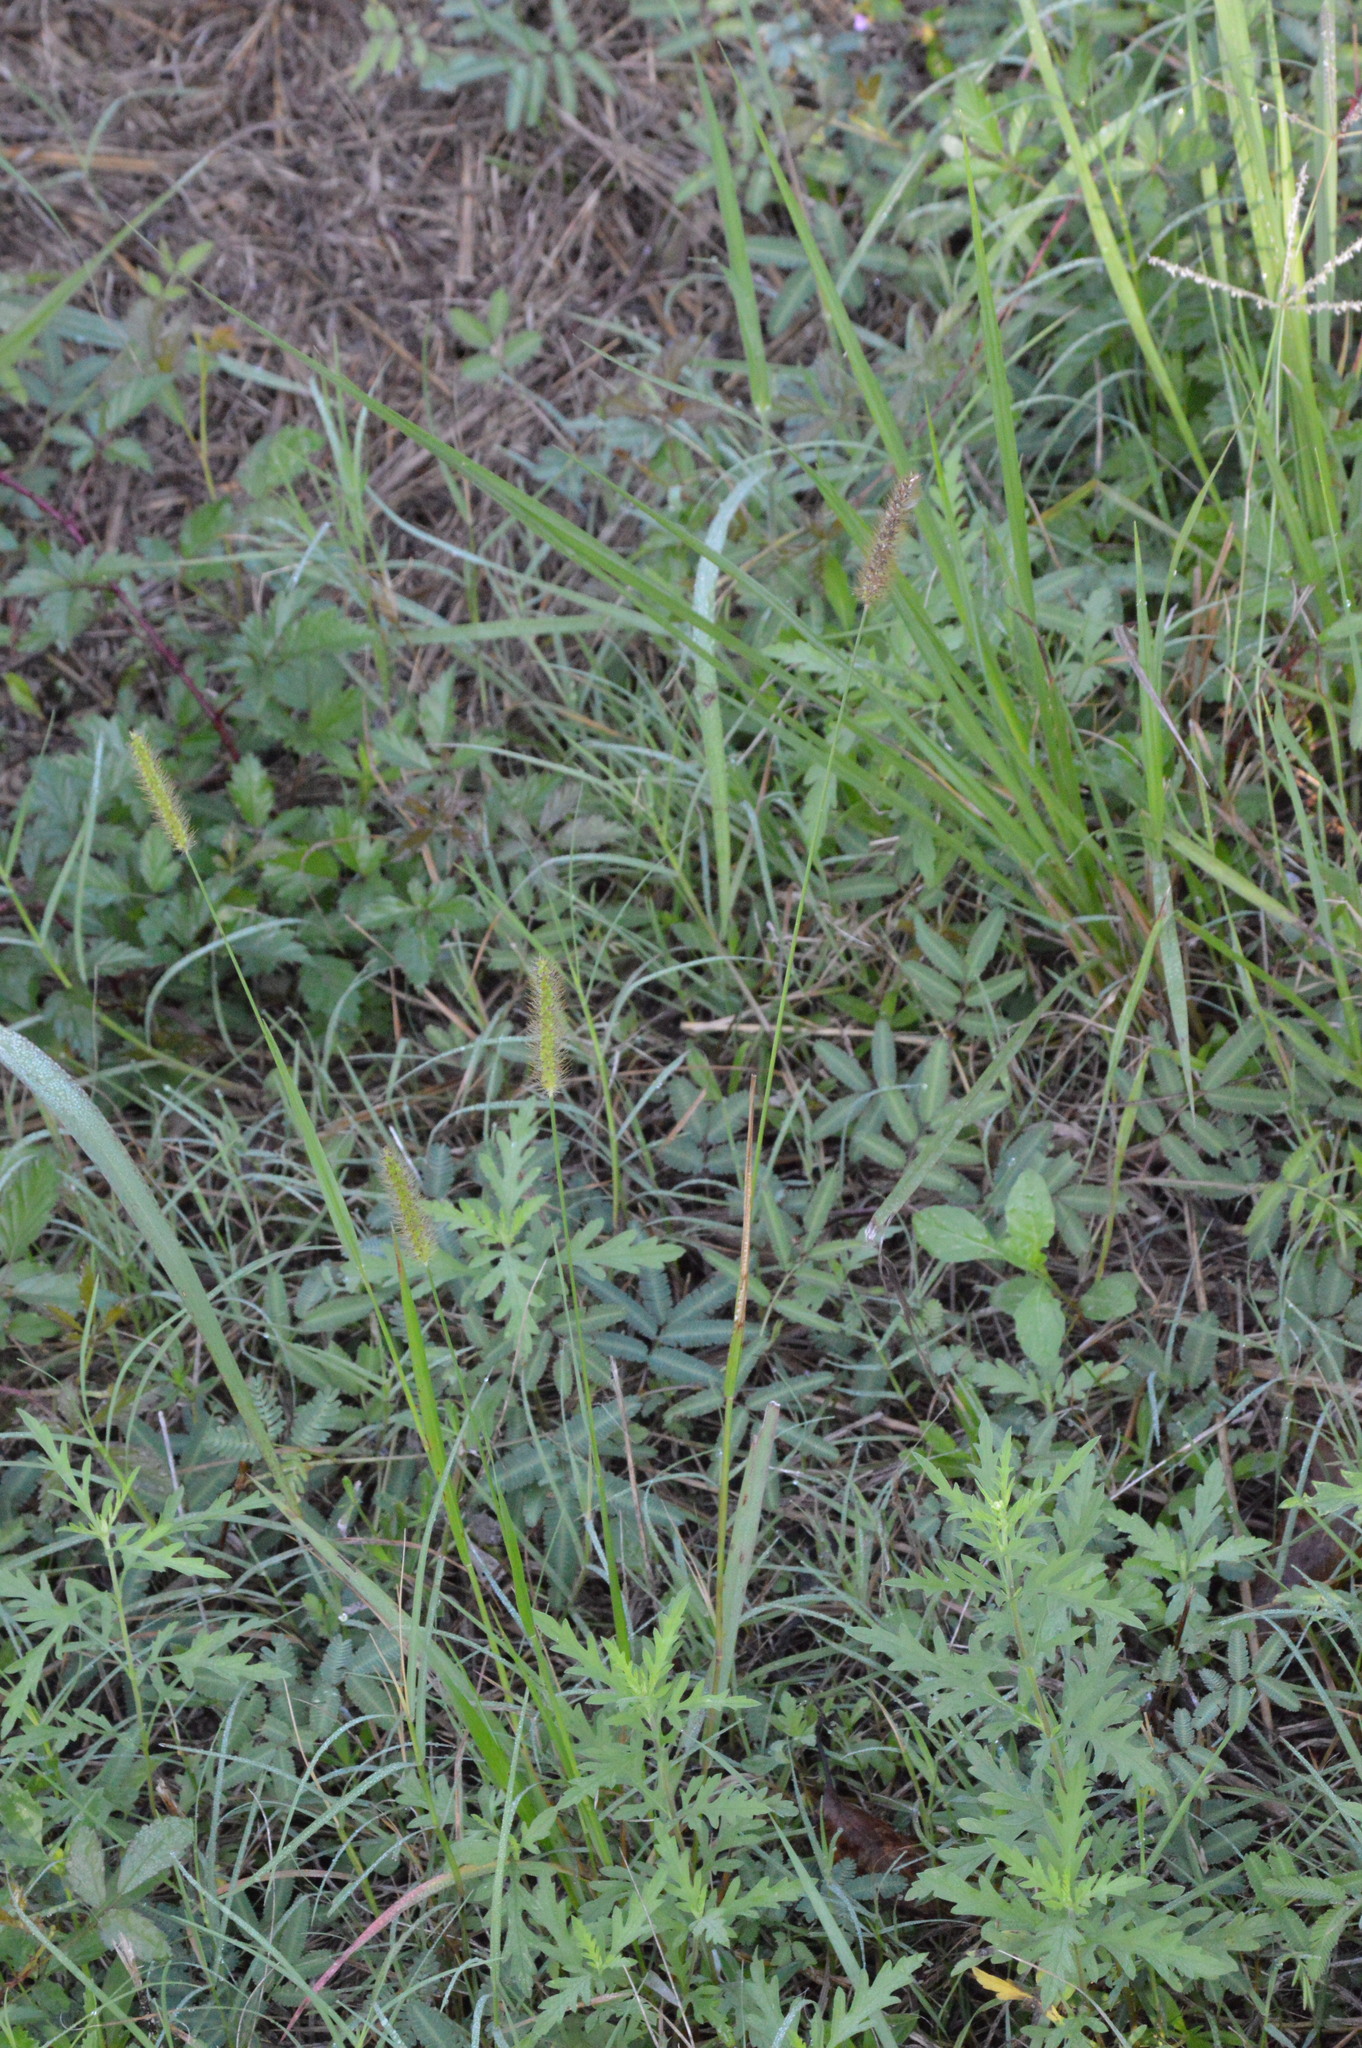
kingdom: Plantae
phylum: Tracheophyta
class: Liliopsida
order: Poales
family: Poaceae
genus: Setaria
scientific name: Setaria parviflora
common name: Knotroot bristle-grass
